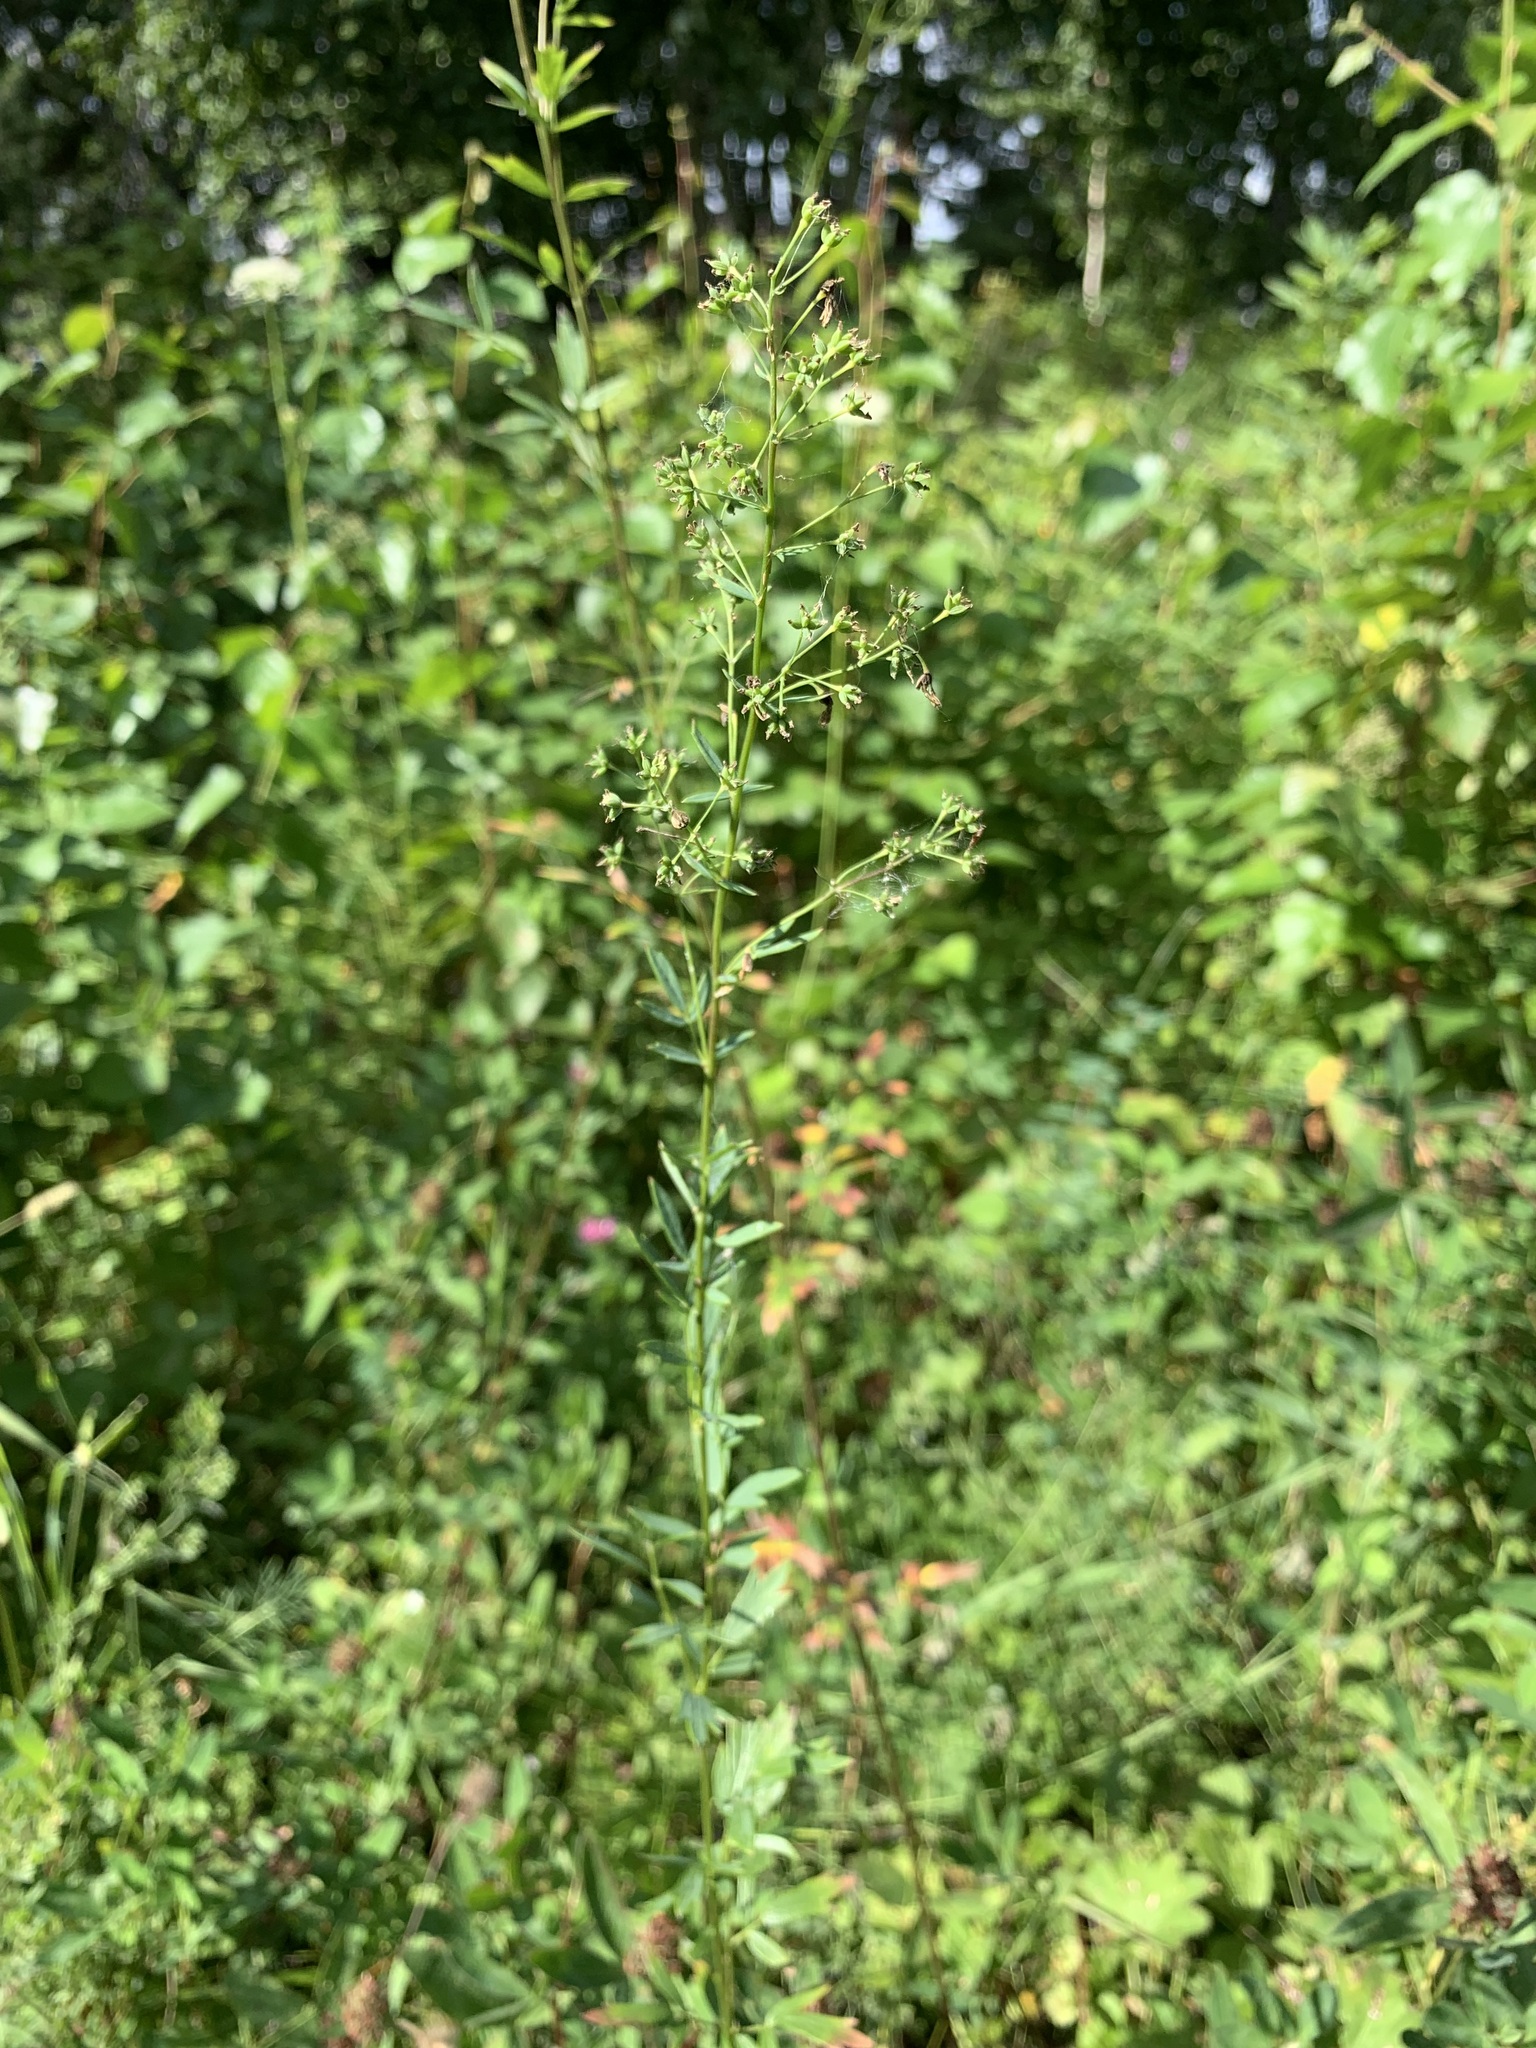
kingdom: Plantae
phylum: Tracheophyta
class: Magnoliopsida
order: Ranunculales
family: Ranunculaceae
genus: Thalictrum
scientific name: Thalictrum simplex
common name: Small meadow-rue
